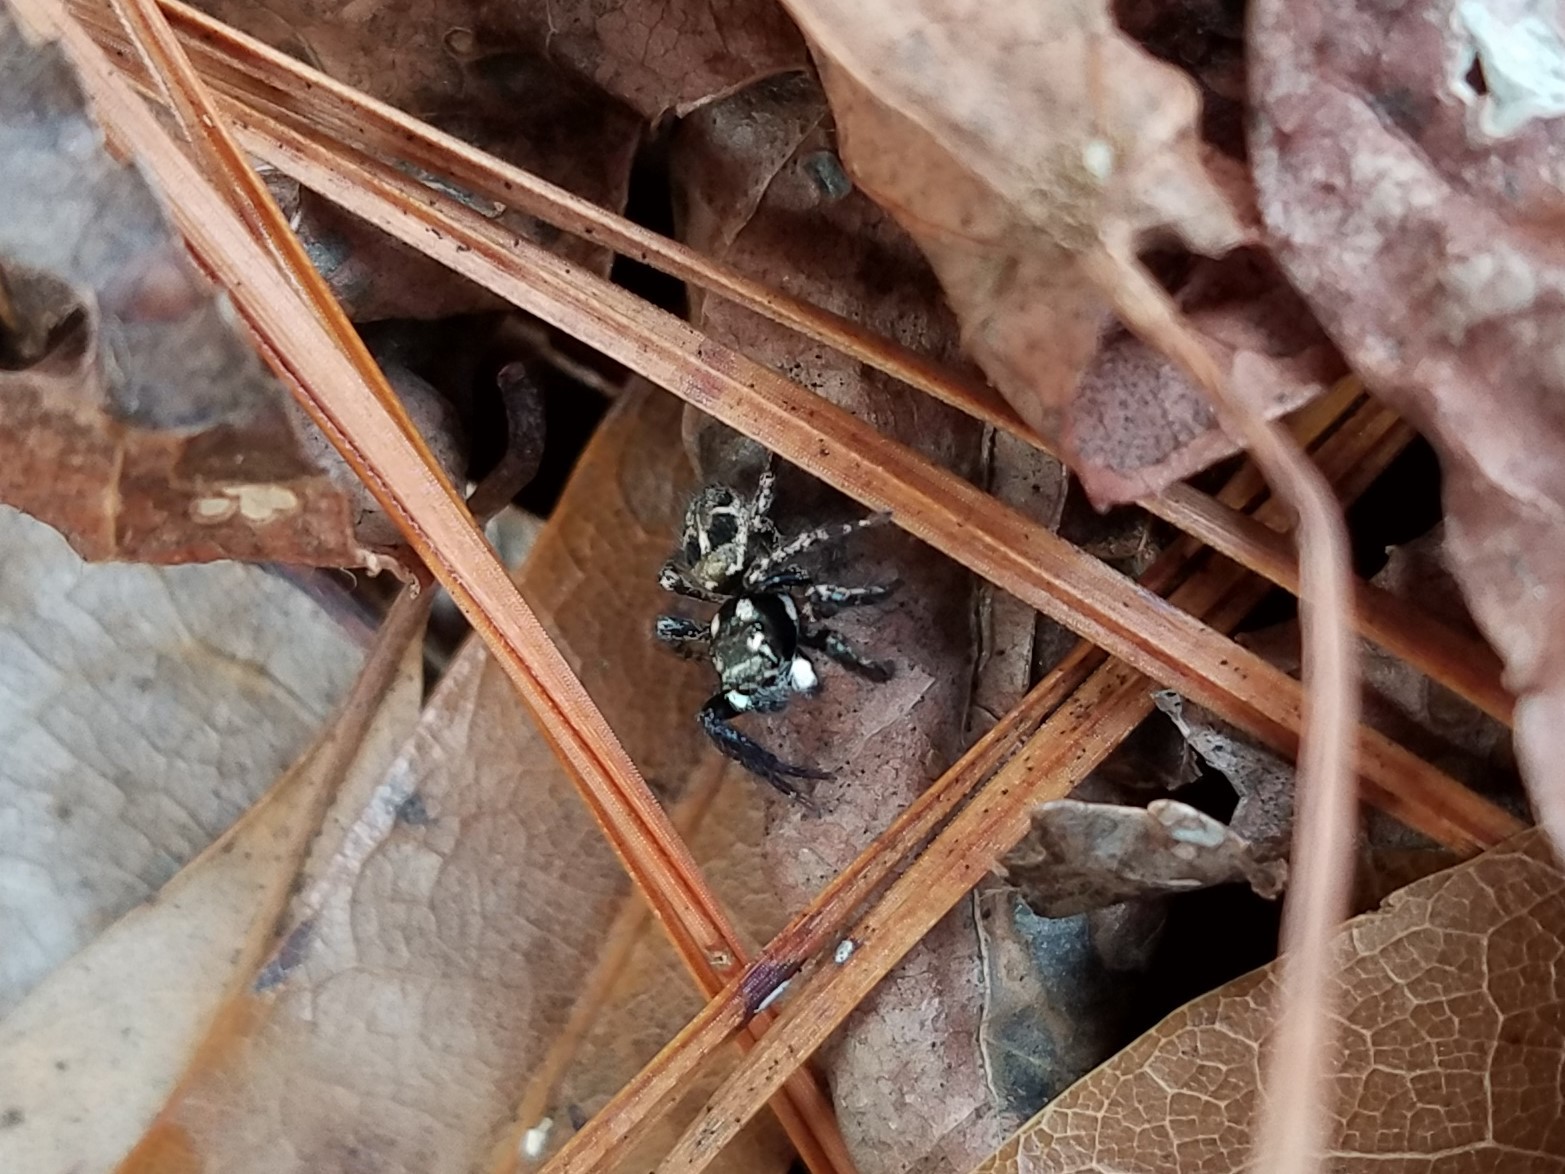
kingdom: Animalia
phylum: Arthropoda
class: Arachnida
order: Araneae
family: Salticidae
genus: Anasaitis
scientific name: Anasaitis canosa
